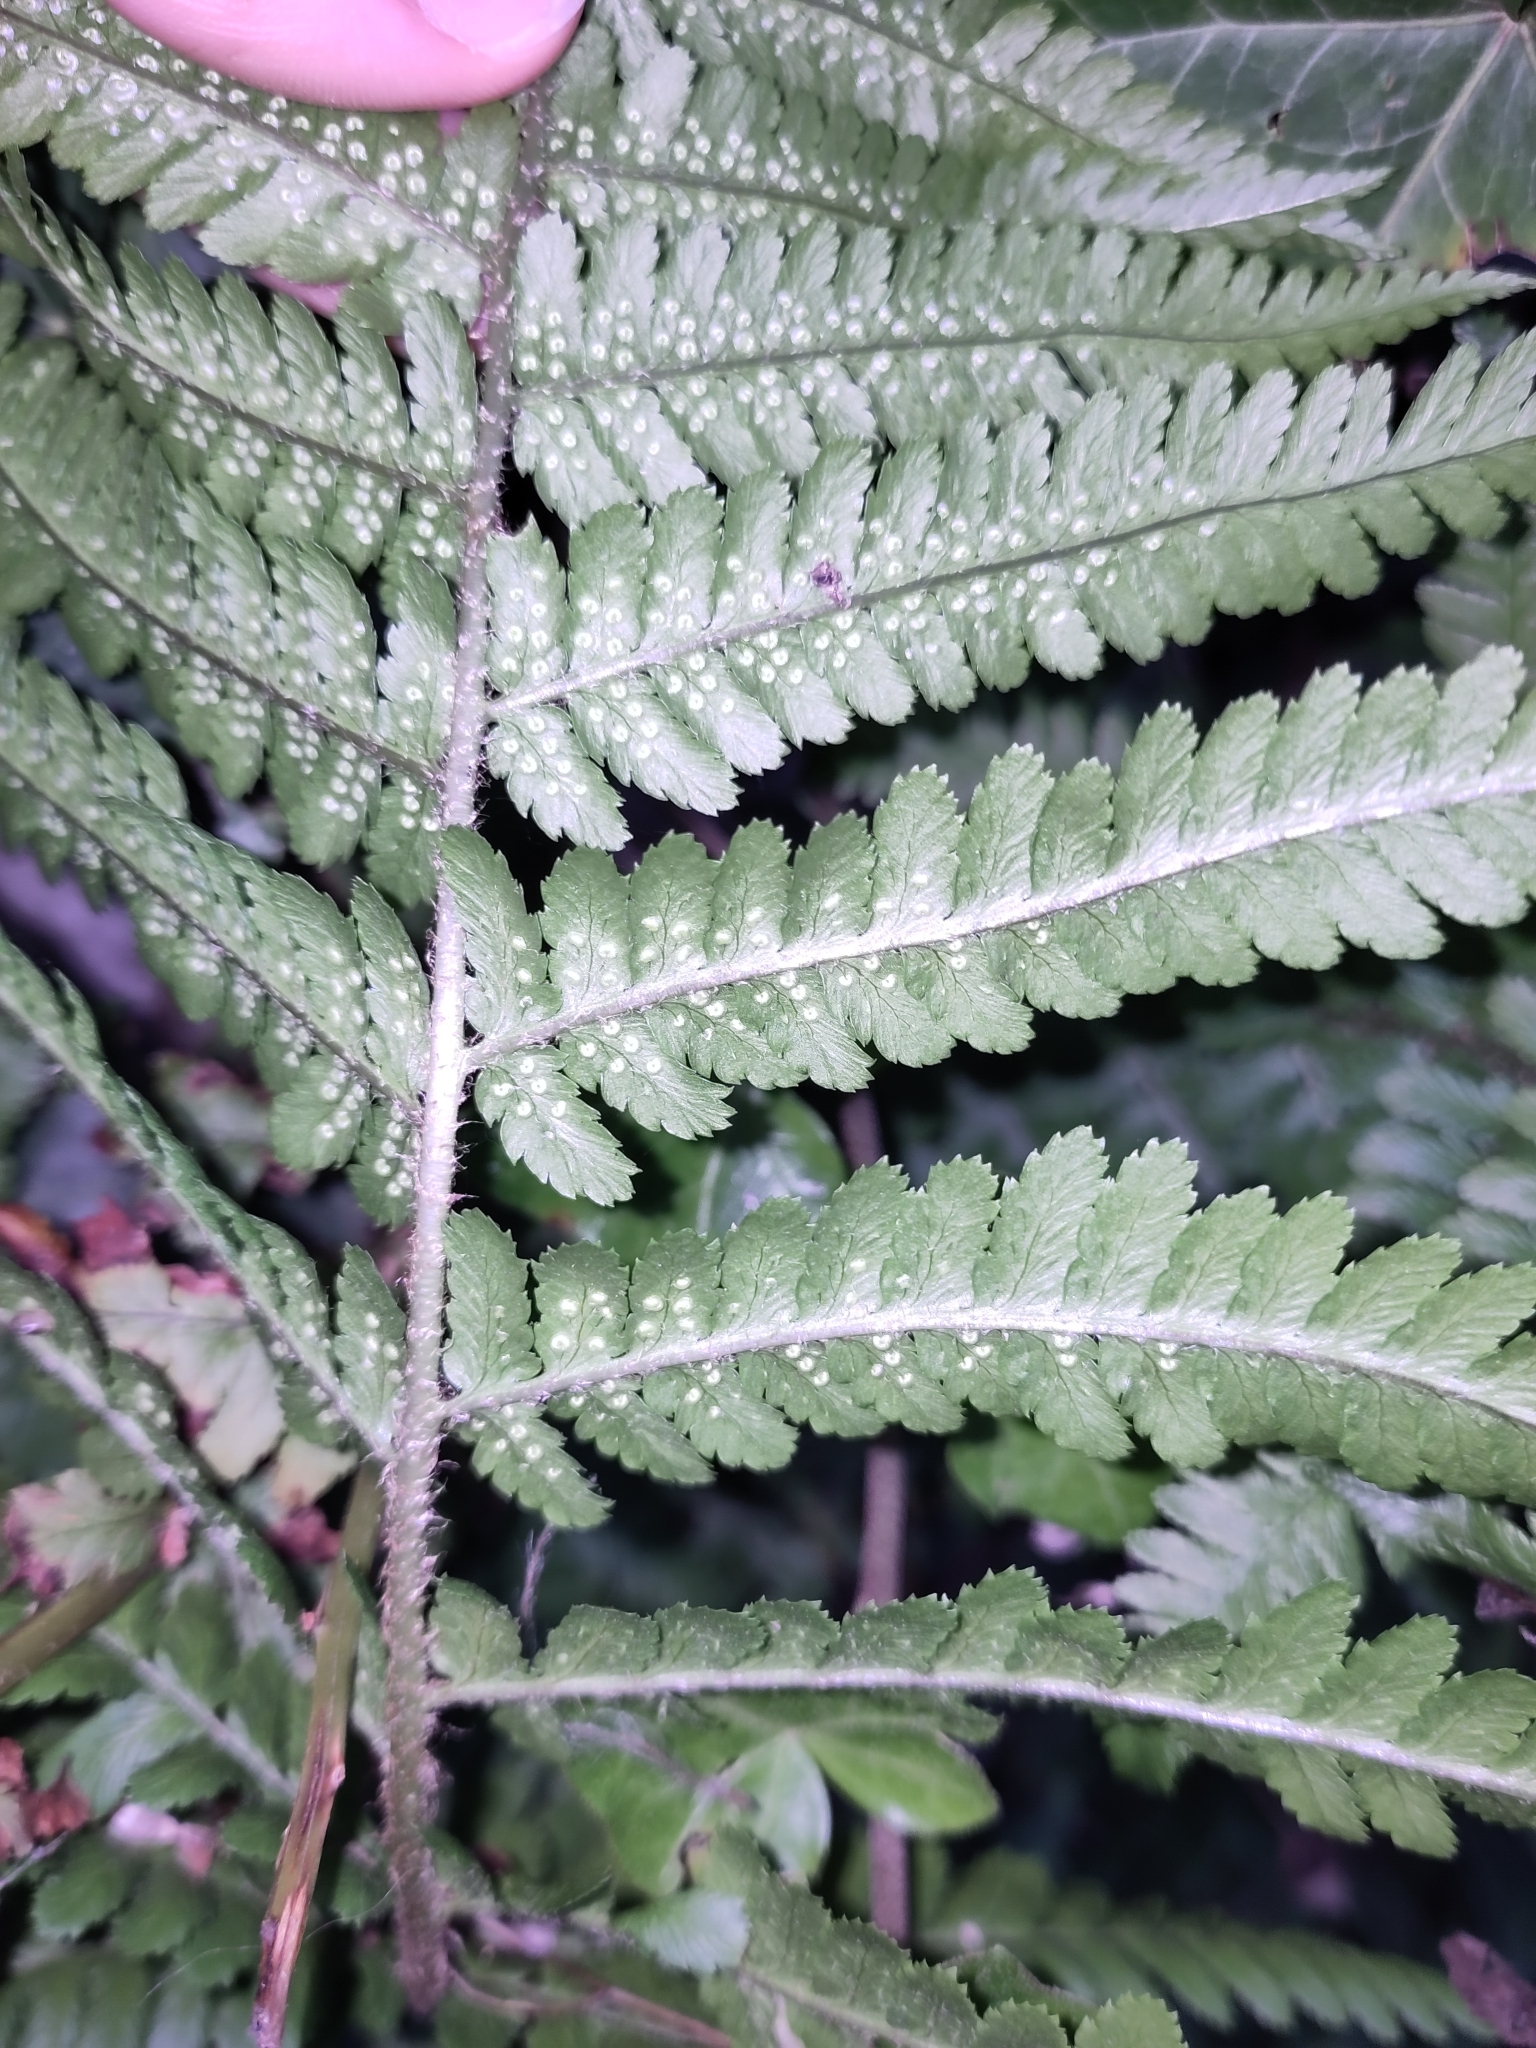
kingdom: Plantae
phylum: Tracheophyta
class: Polypodiopsida
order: Polypodiales
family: Dryopteridaceae
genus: Dryopteris
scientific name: Dryopteris filix-mas
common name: Male fern
